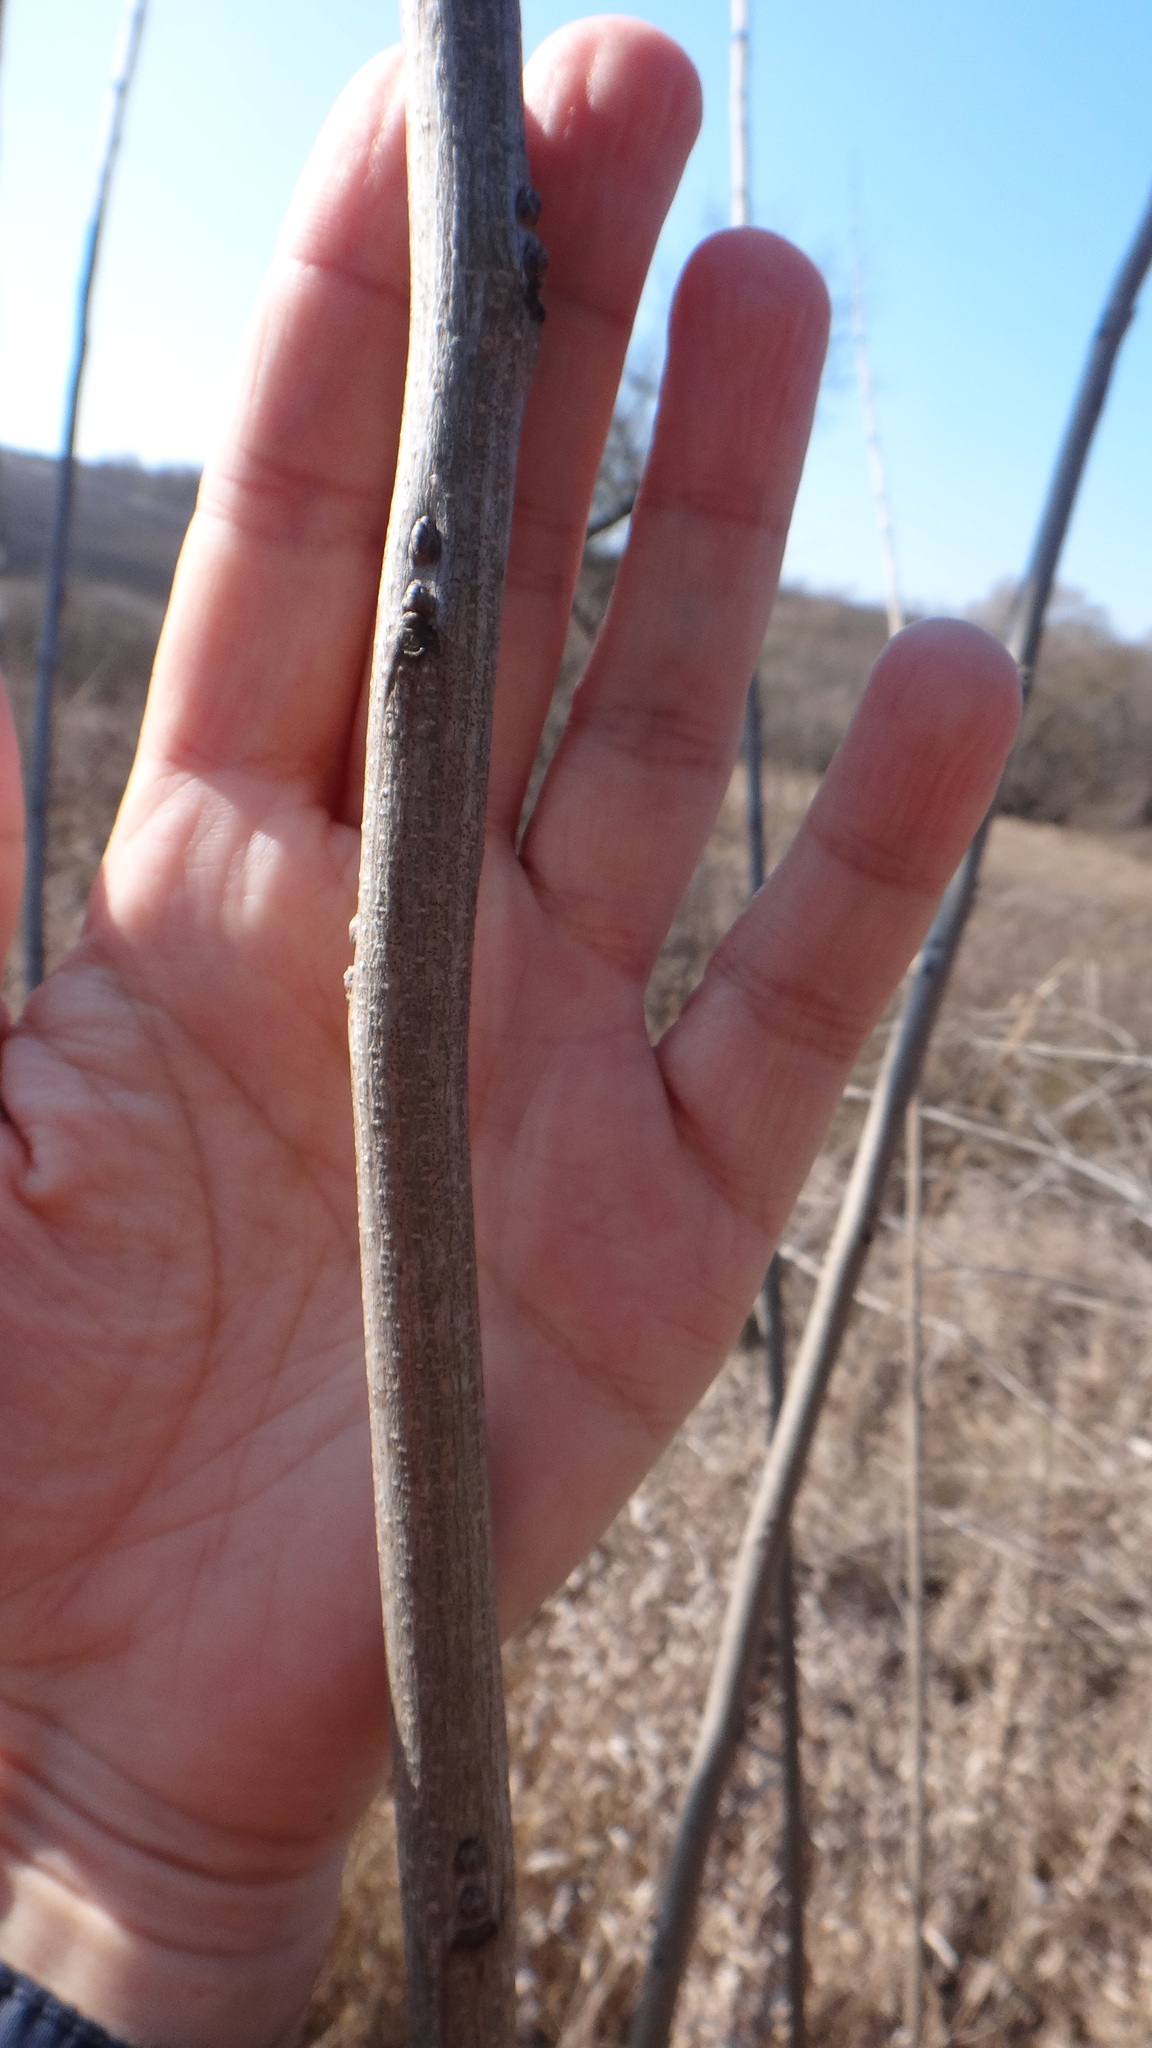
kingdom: Plantae
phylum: Tracheophyta
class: Magnoliopsida
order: Fabales
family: Fabaceae
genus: Amorpha
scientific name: Amorpha fruticosa
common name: False indigo
